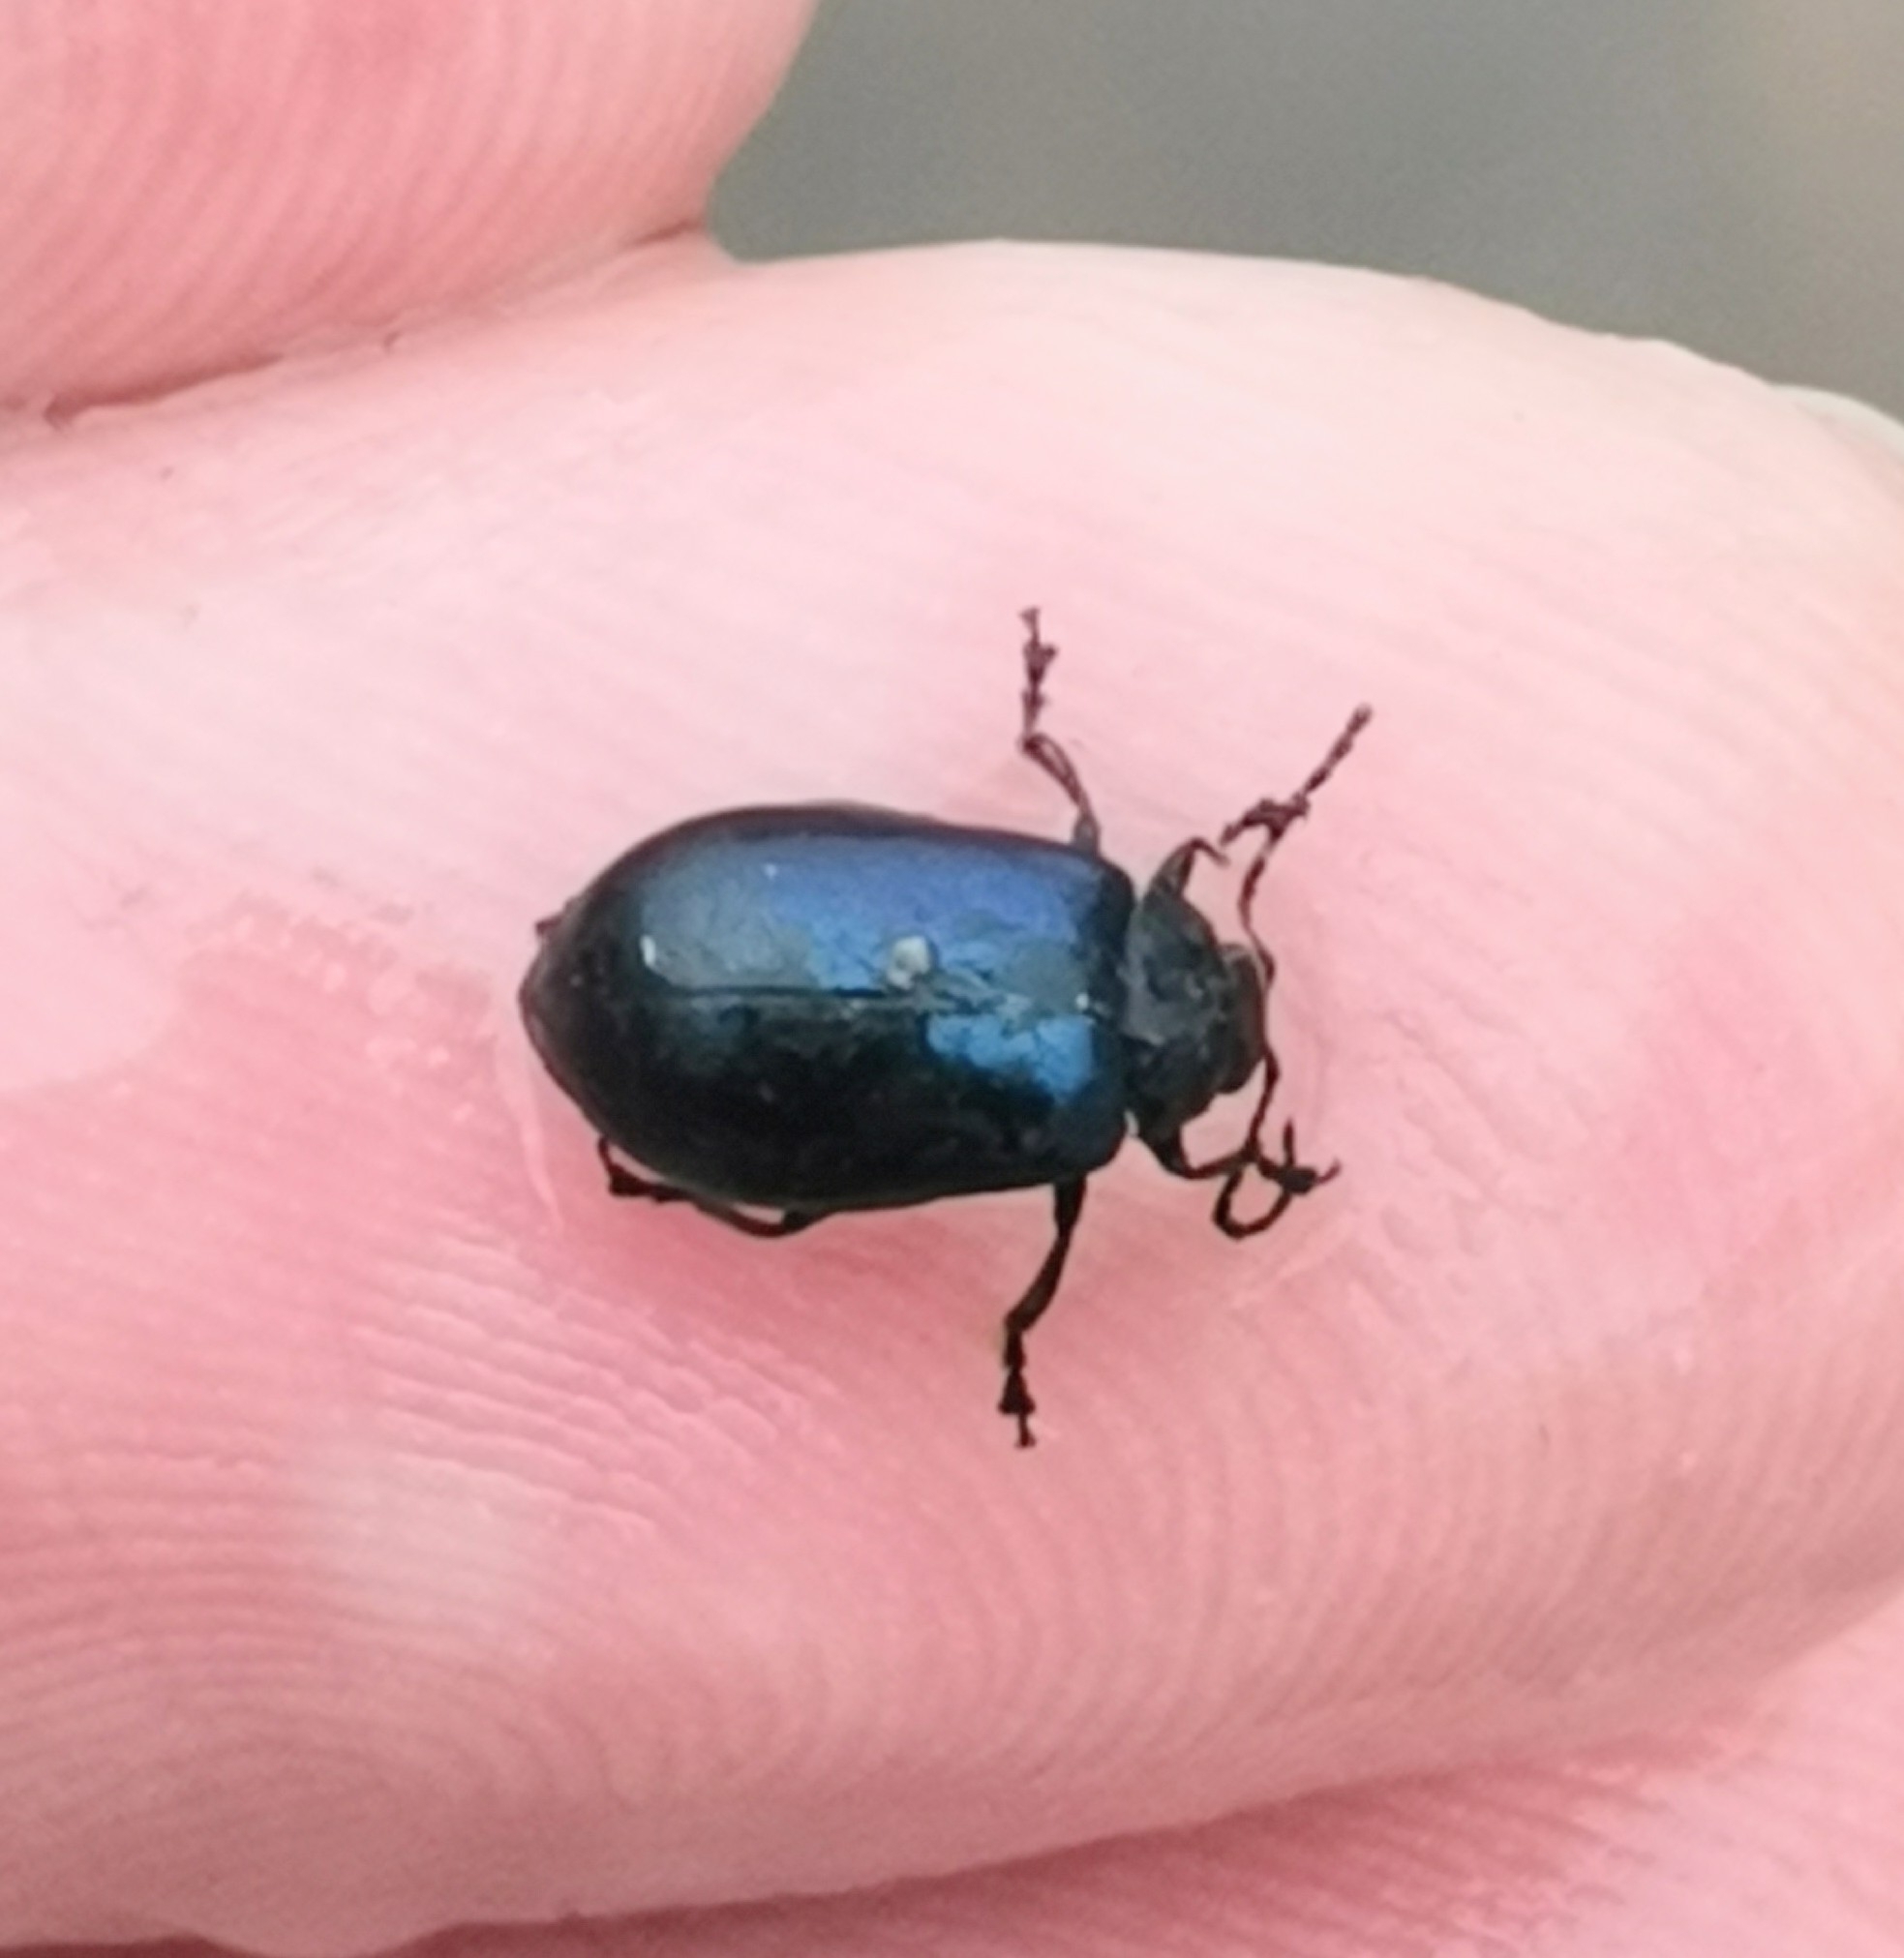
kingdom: Animalia
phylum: Arthropoda
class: Insecta
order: Coleoptera
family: Chrysomelidae
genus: Agelastica
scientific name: Agelastica alni
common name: Alder leaf beetle
